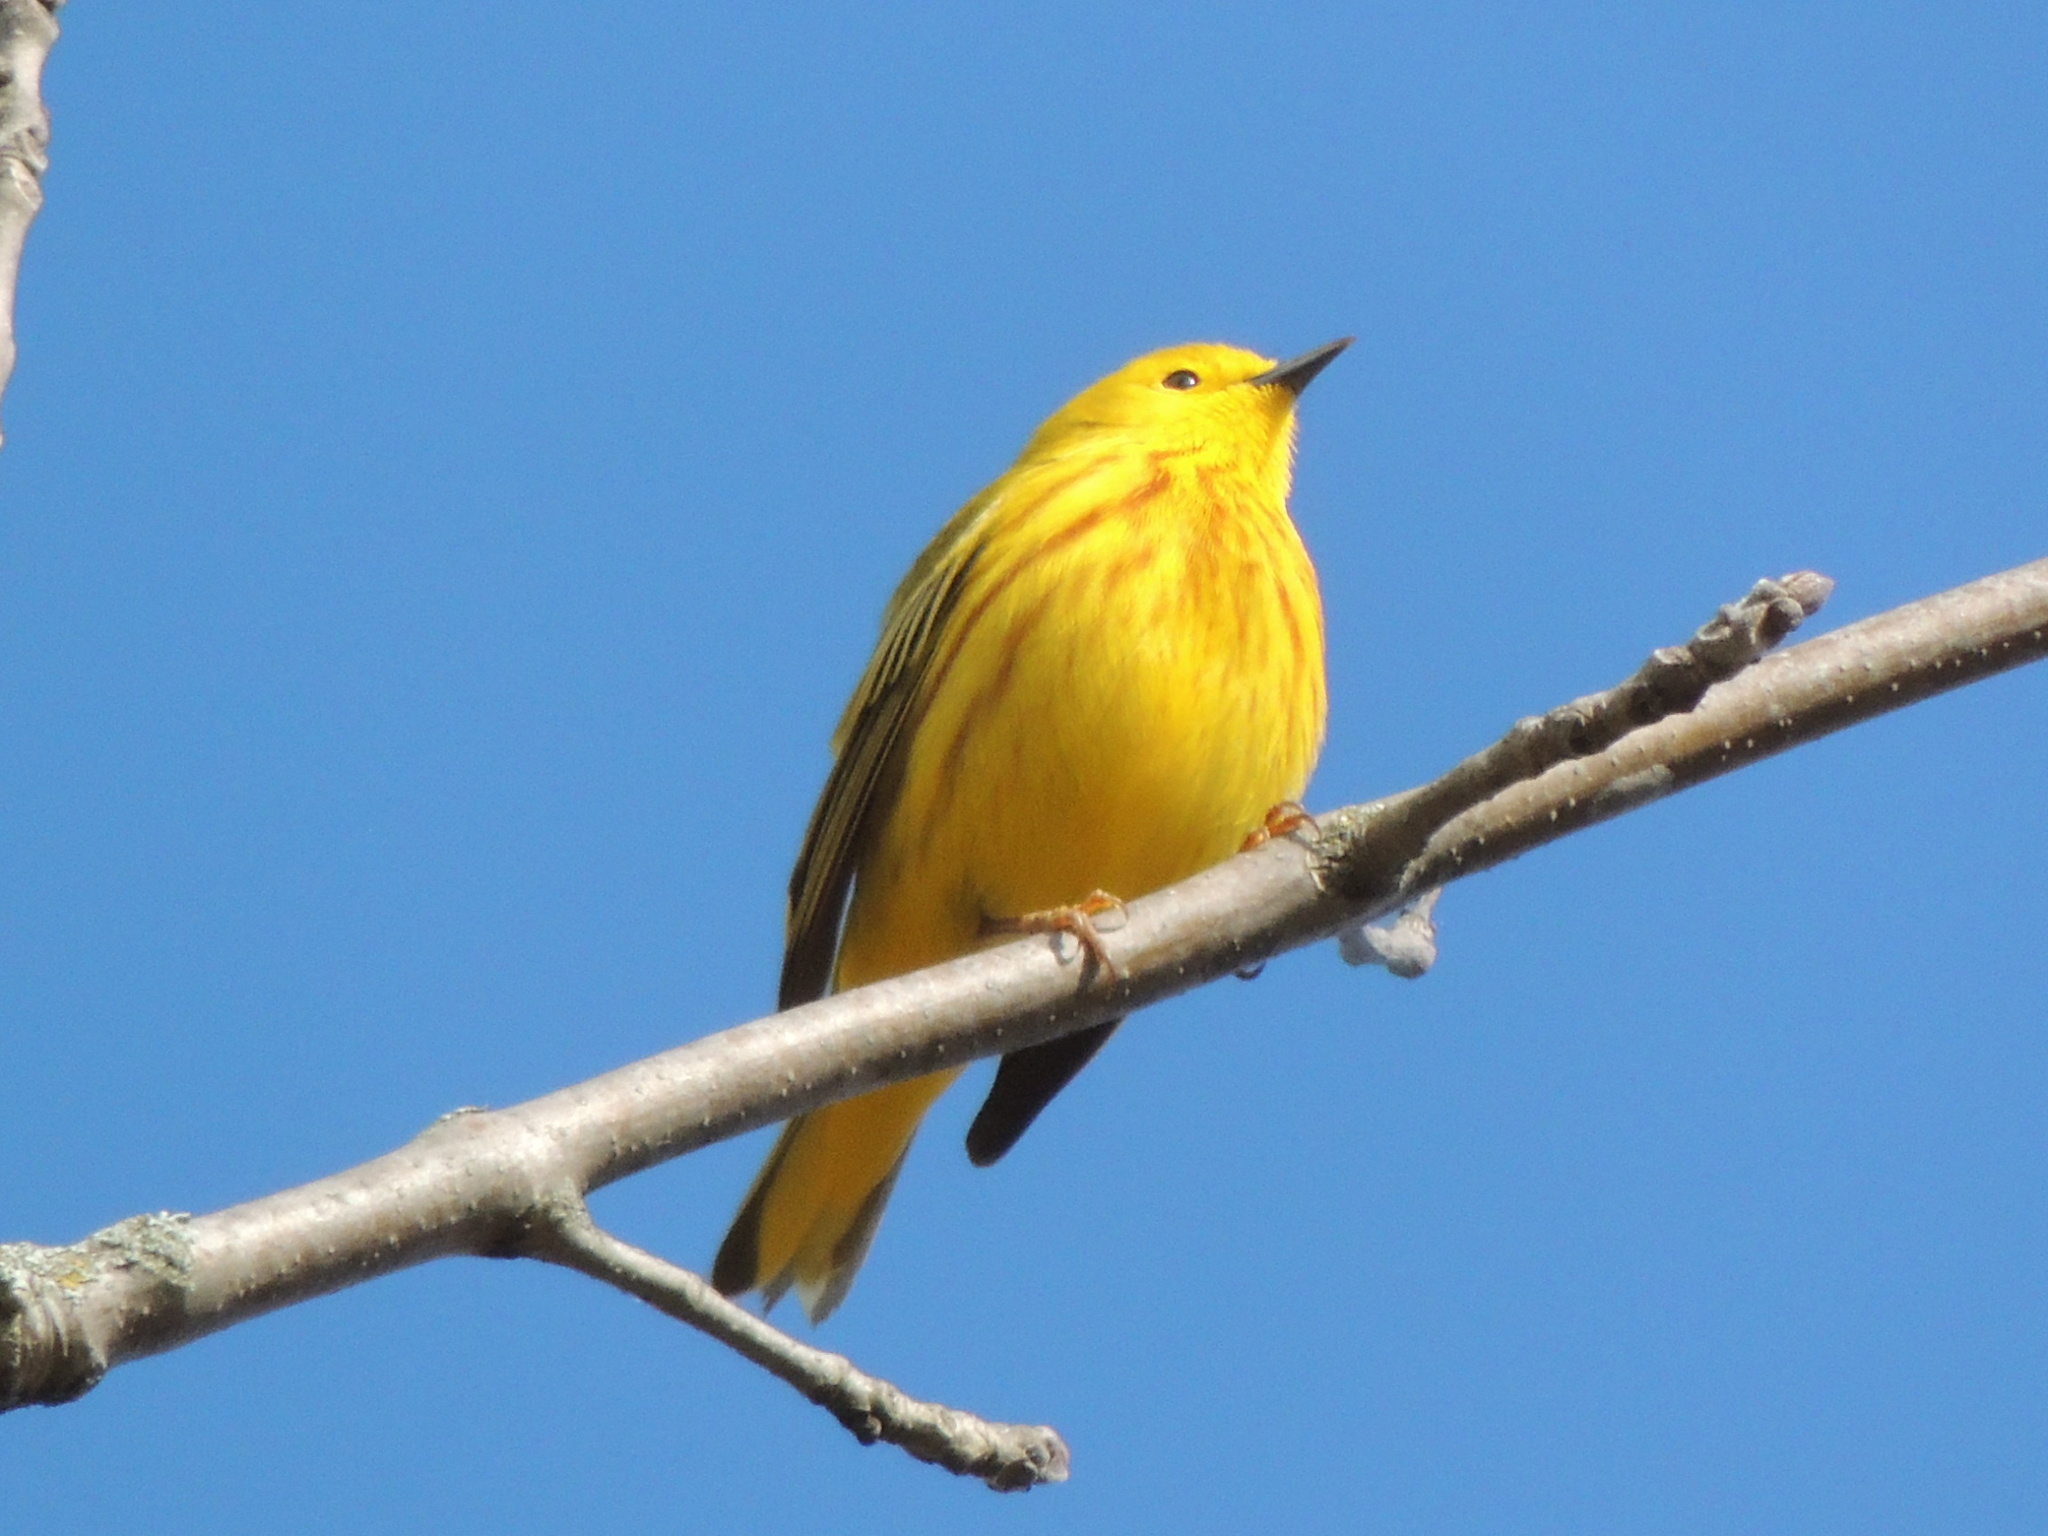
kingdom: Animalia
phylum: Chordata
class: Aves
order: Passeriformes
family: Parulidae
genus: Setophaga
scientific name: Setophaga petechia
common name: Yellow warbler
